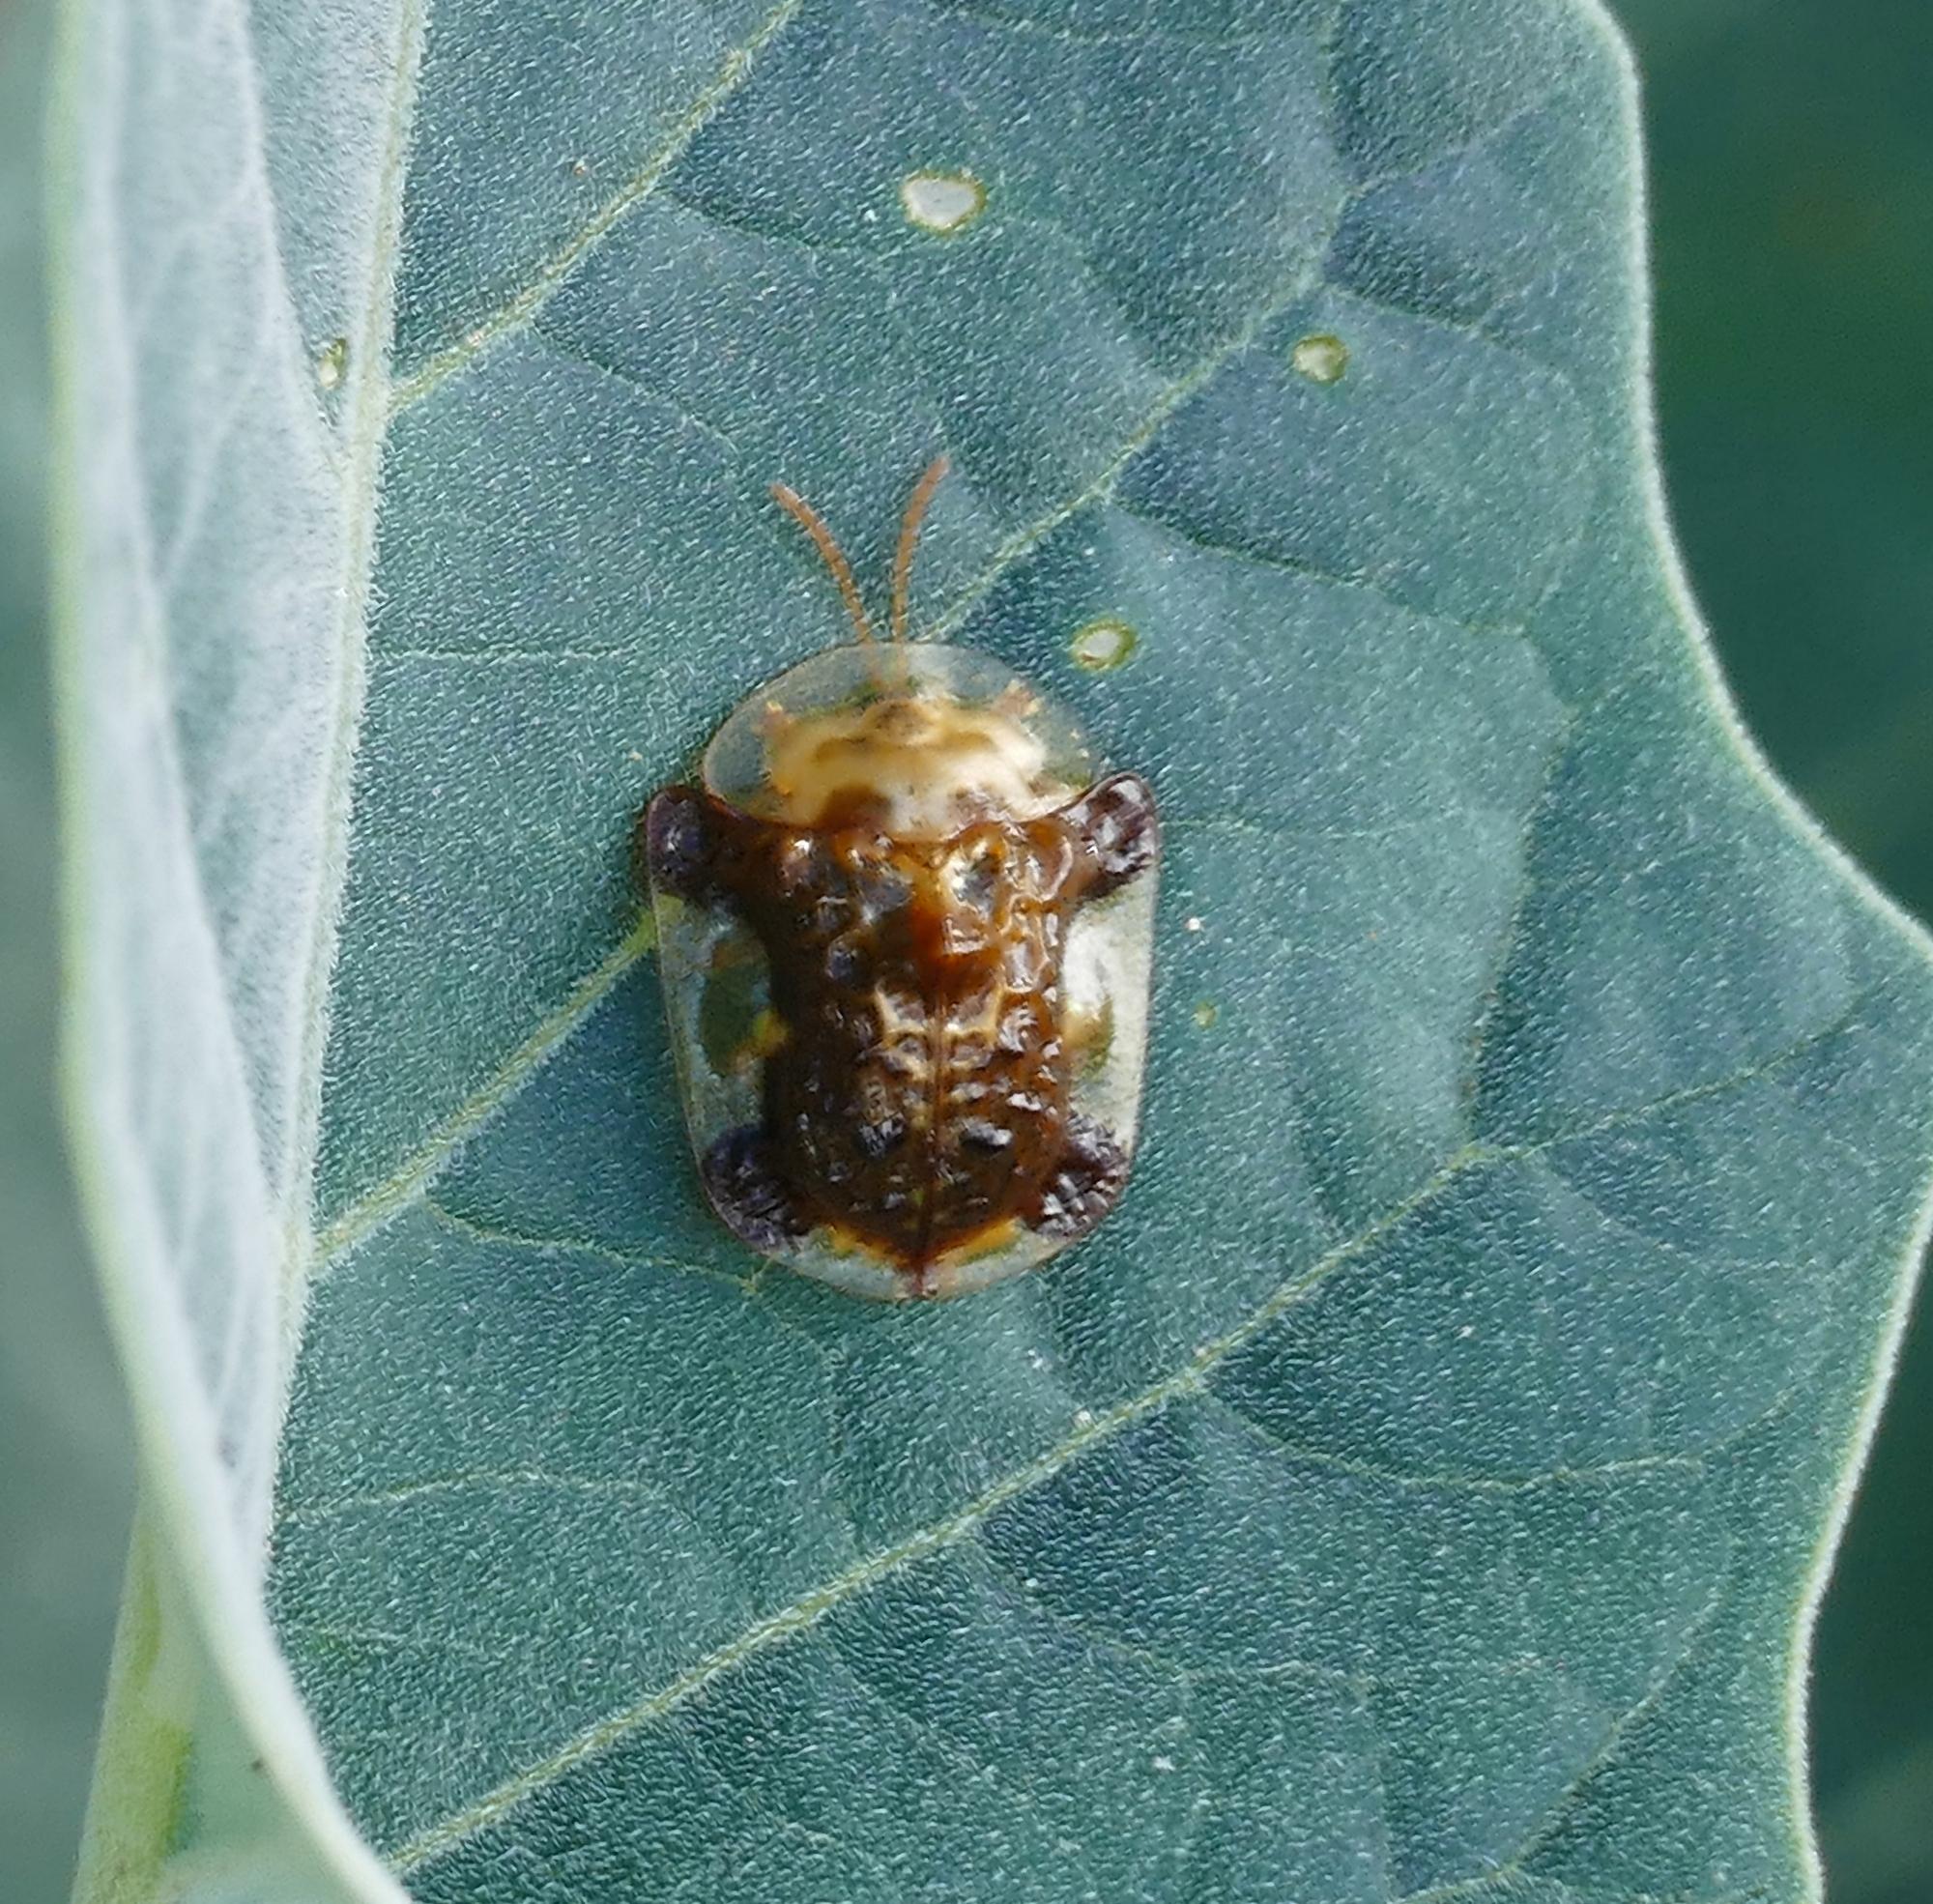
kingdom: Animalia
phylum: Arthropoda
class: Insecta
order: Coleoptera
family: Chrysomelidae
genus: Helocassis
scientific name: Helocassis testudinaria
